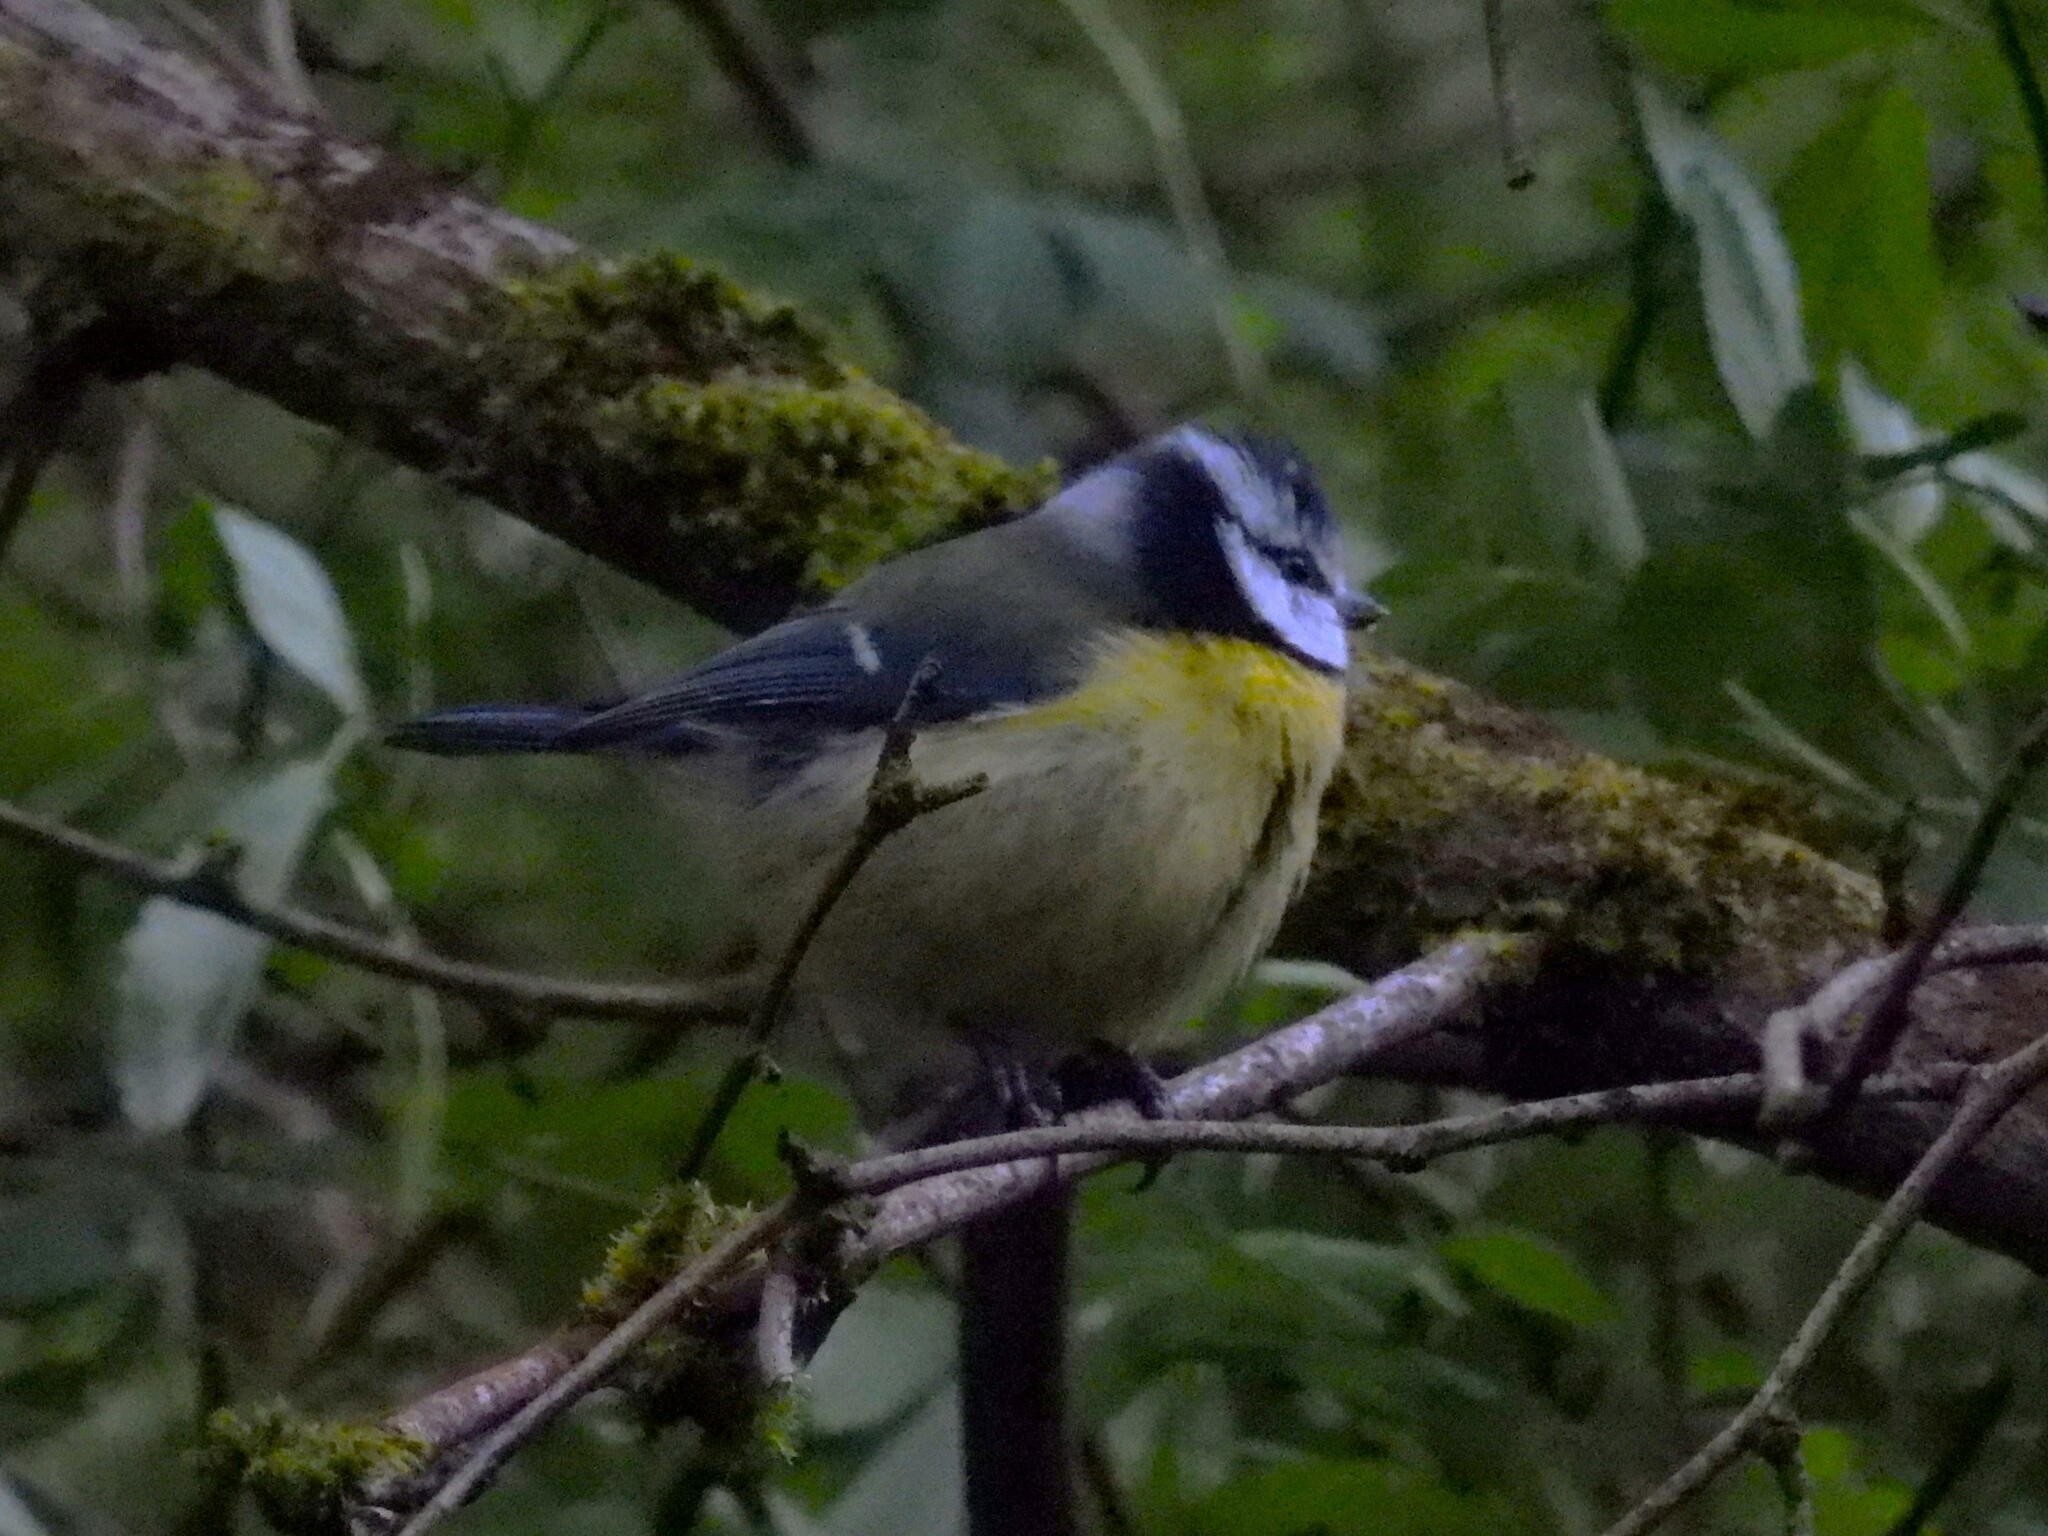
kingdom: Animalia
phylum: Chordata
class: Aves
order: Passeriformes
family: Paridae
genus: Cyanistes
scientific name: Cyanistes caeruleus
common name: Eurasian blue tit
